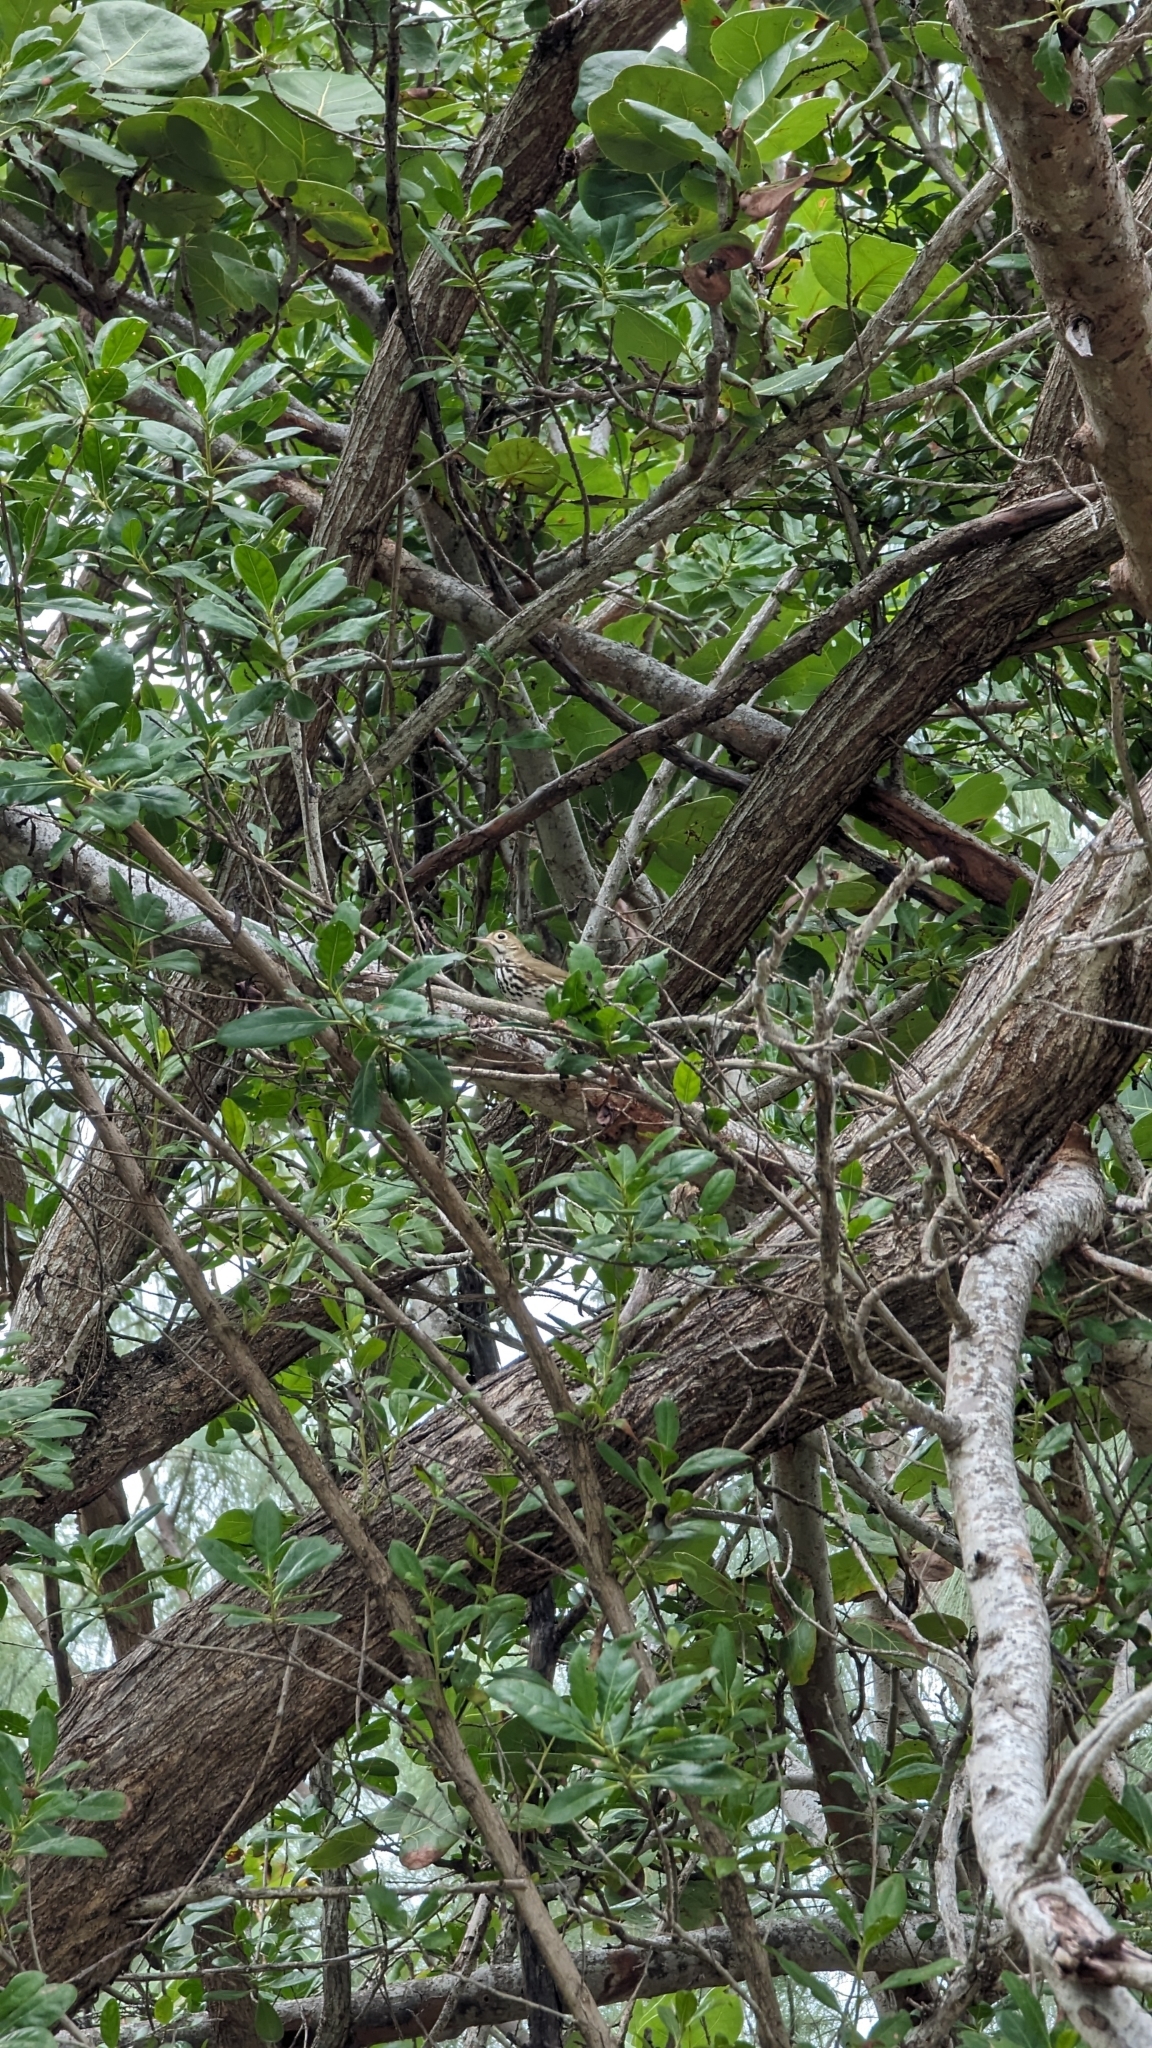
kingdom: Animalia
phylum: Chordata
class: Aves
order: Passeriformes
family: Parulidae
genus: Seiurus
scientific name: Seiurus aurocapilla
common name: Ovenbird
